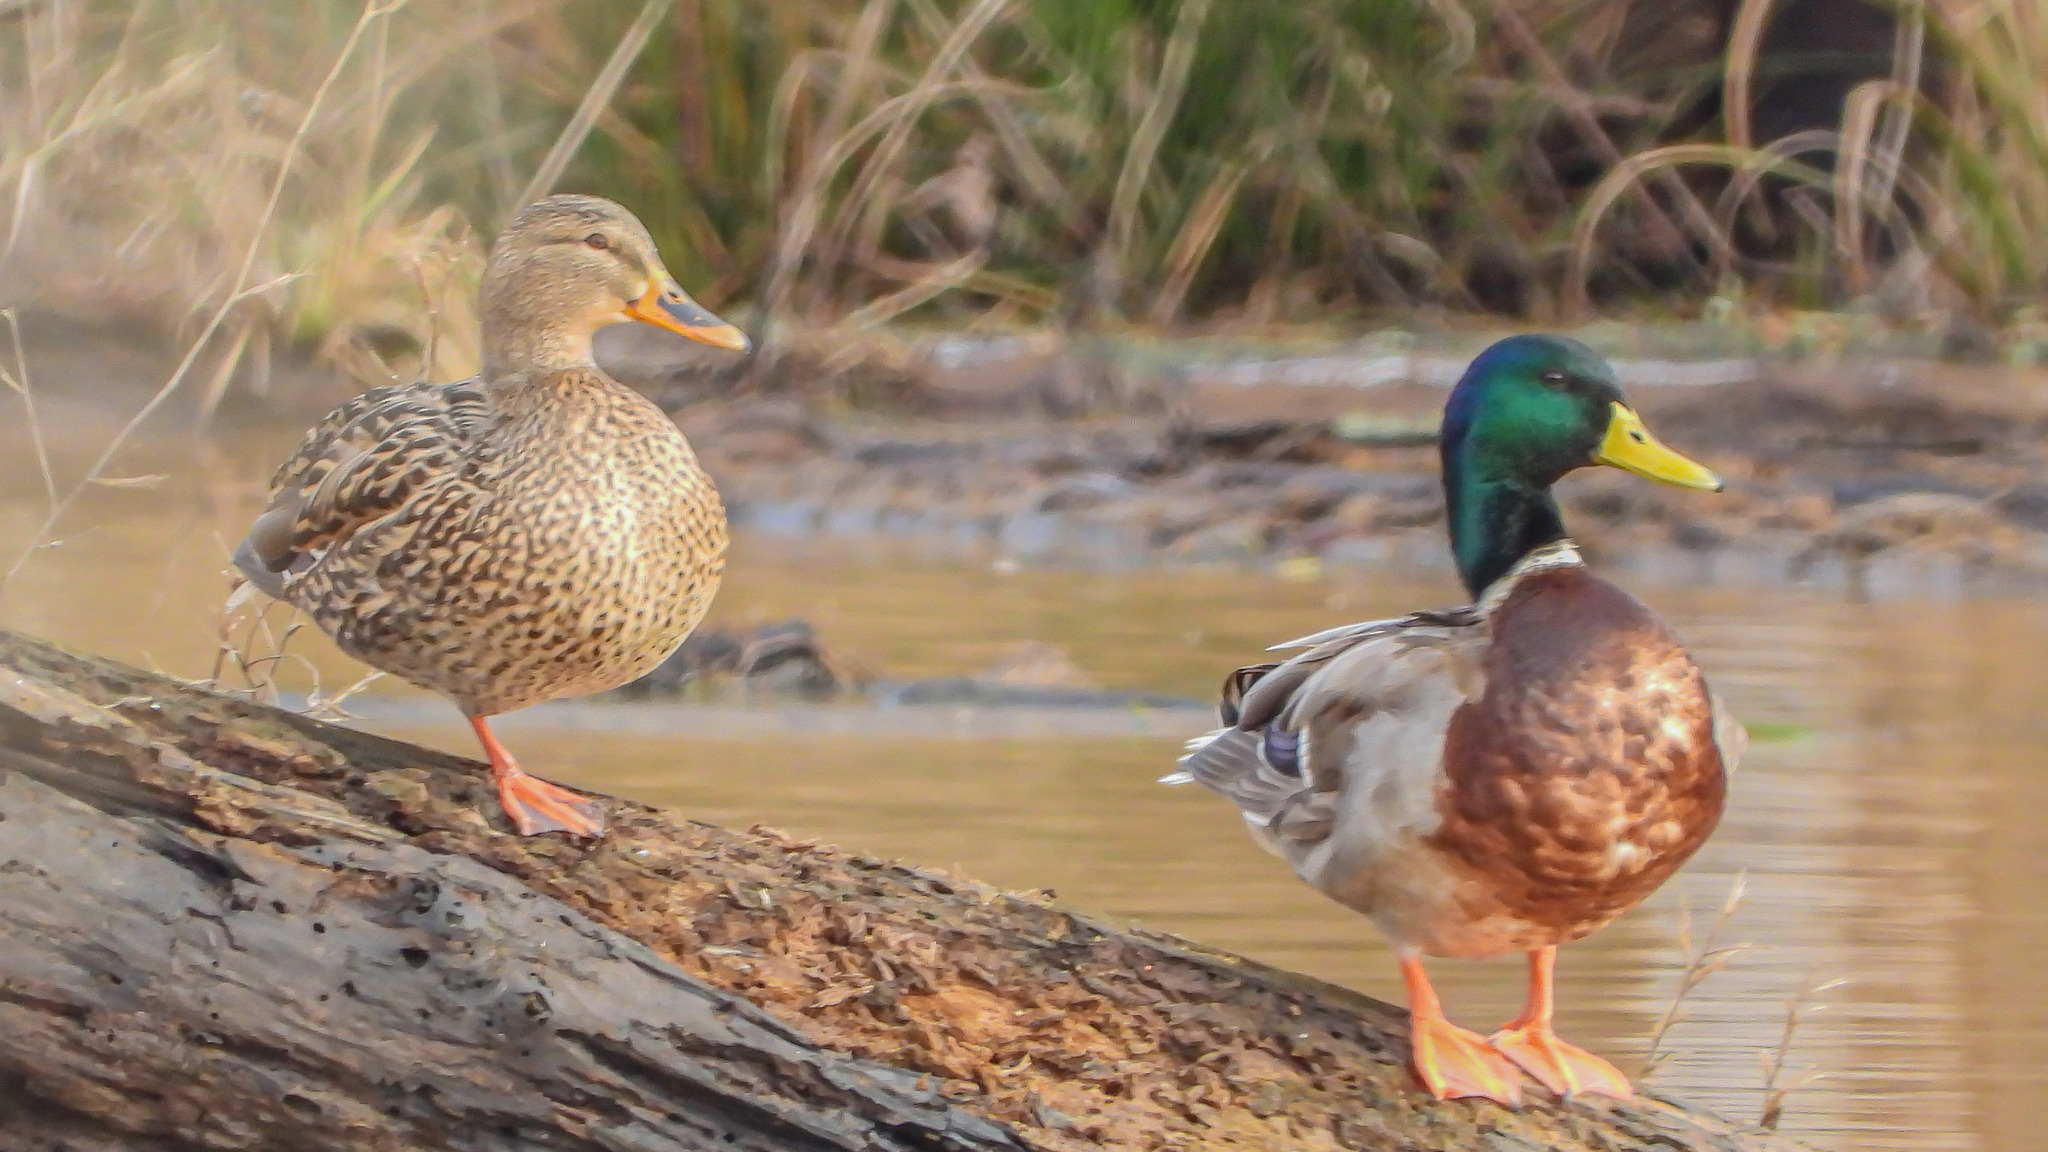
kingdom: Animalia
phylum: Chordata
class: Aves
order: Anseriformes
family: Anatidae
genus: Anas
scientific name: Anas platyrhynchos
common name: Mallard
